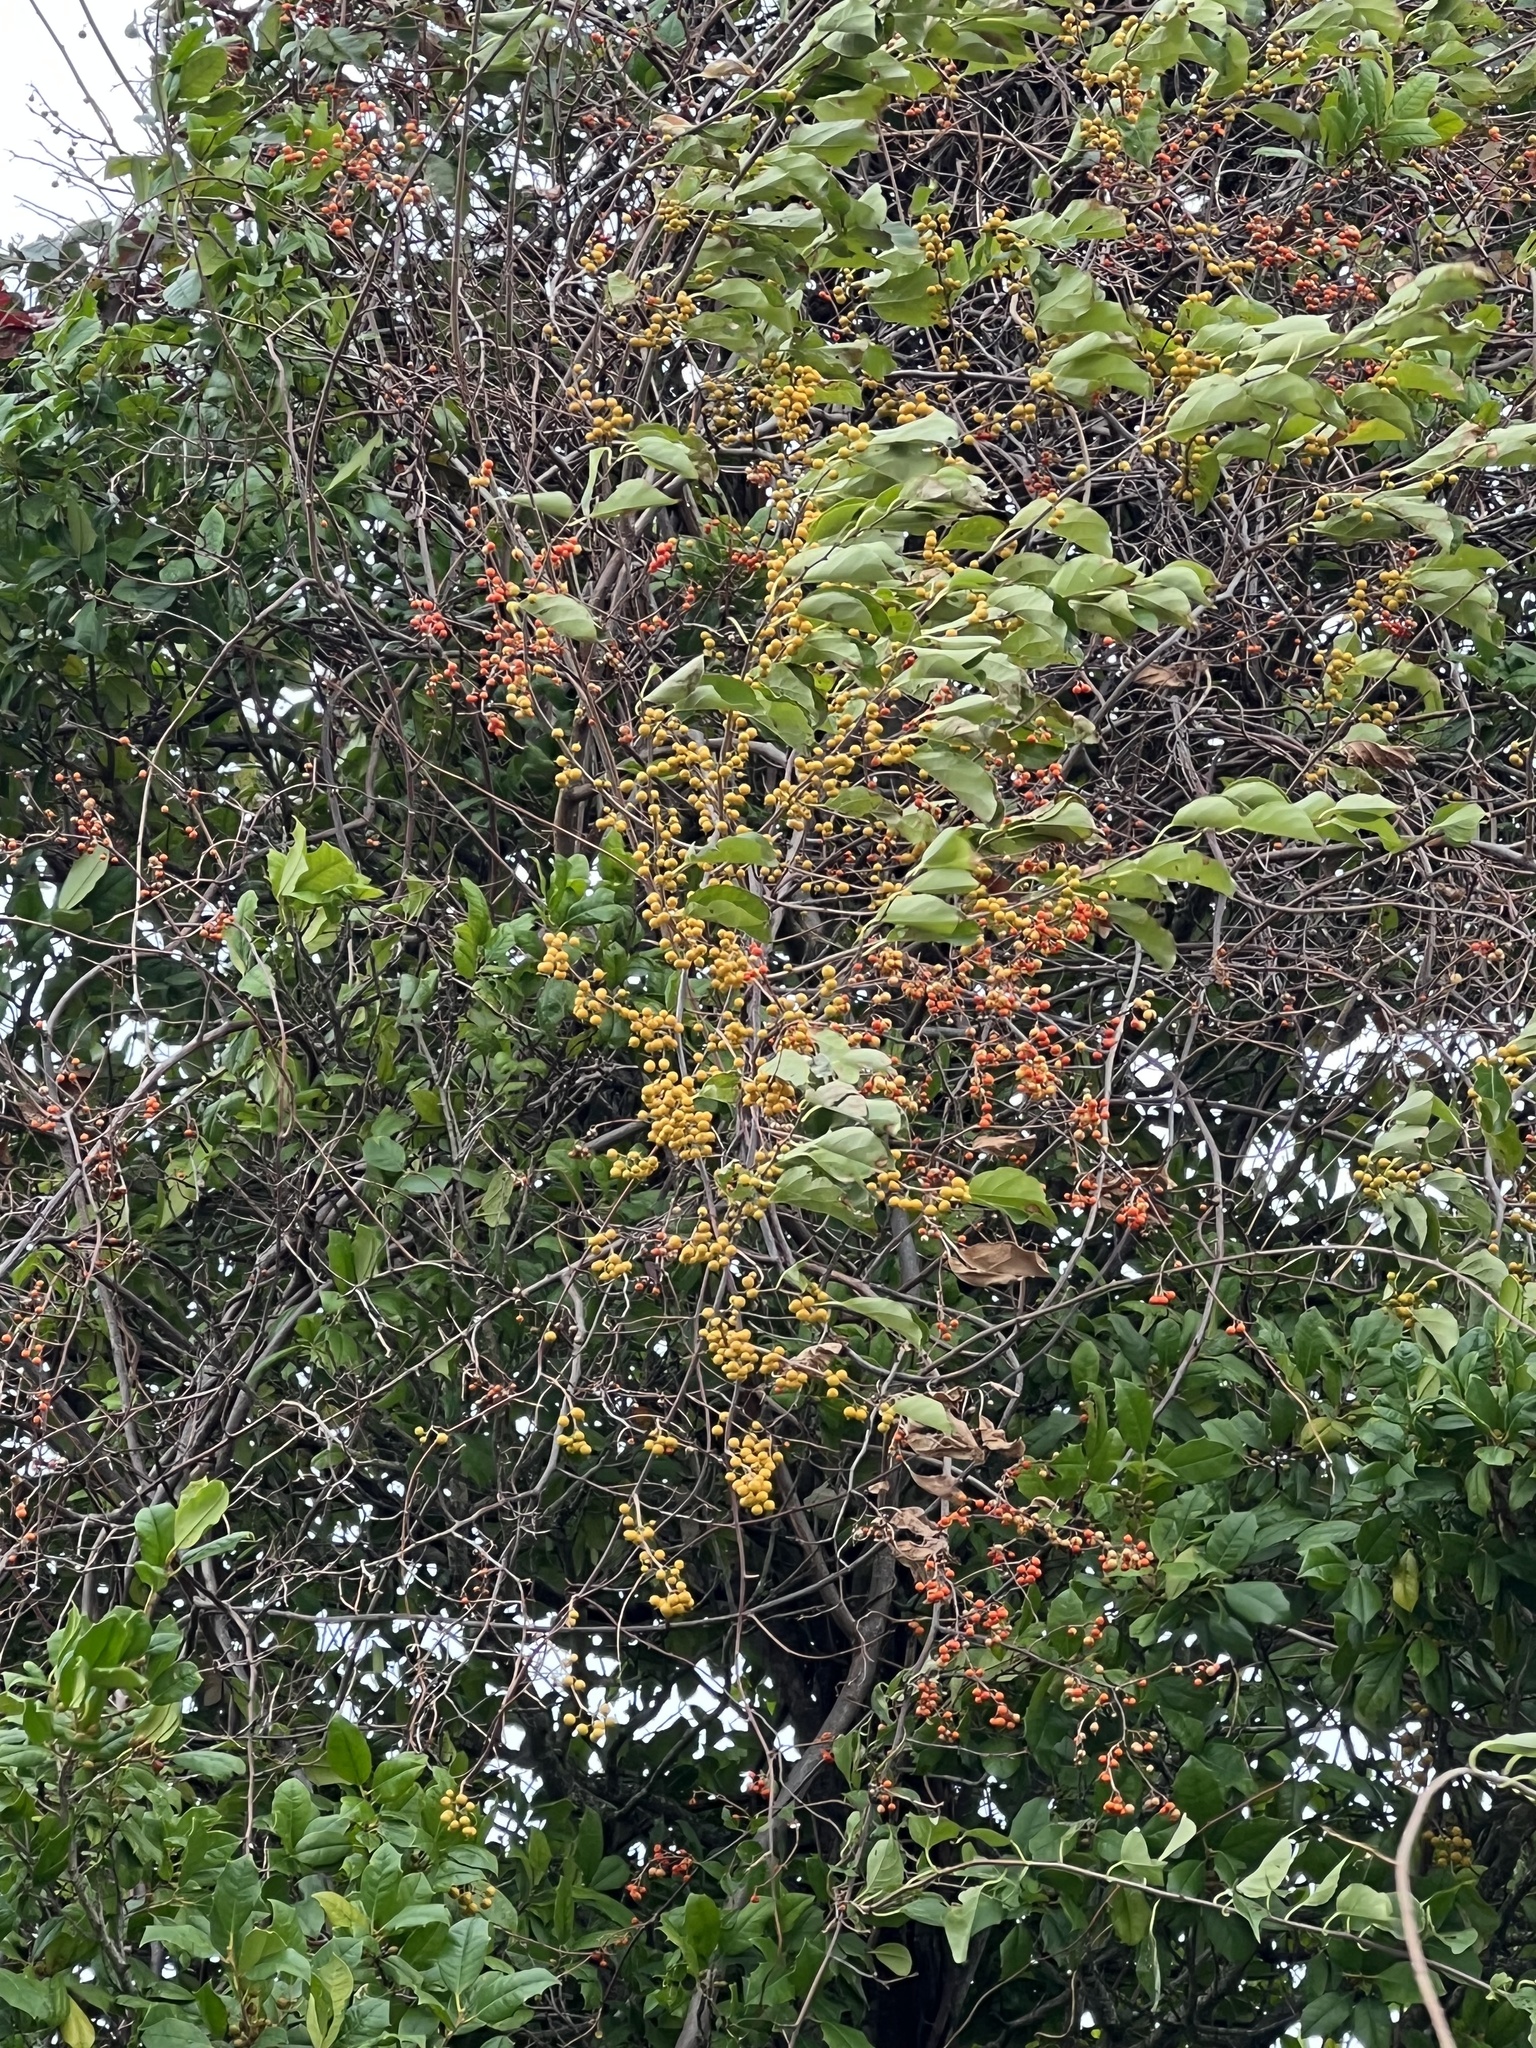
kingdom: Plantae
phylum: Tracheophyta
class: Magnoliopsida
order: Celastrales
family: Celastraceae
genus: Celastrus
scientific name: Celastrus orbiculatus
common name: Oriental bittersweet
